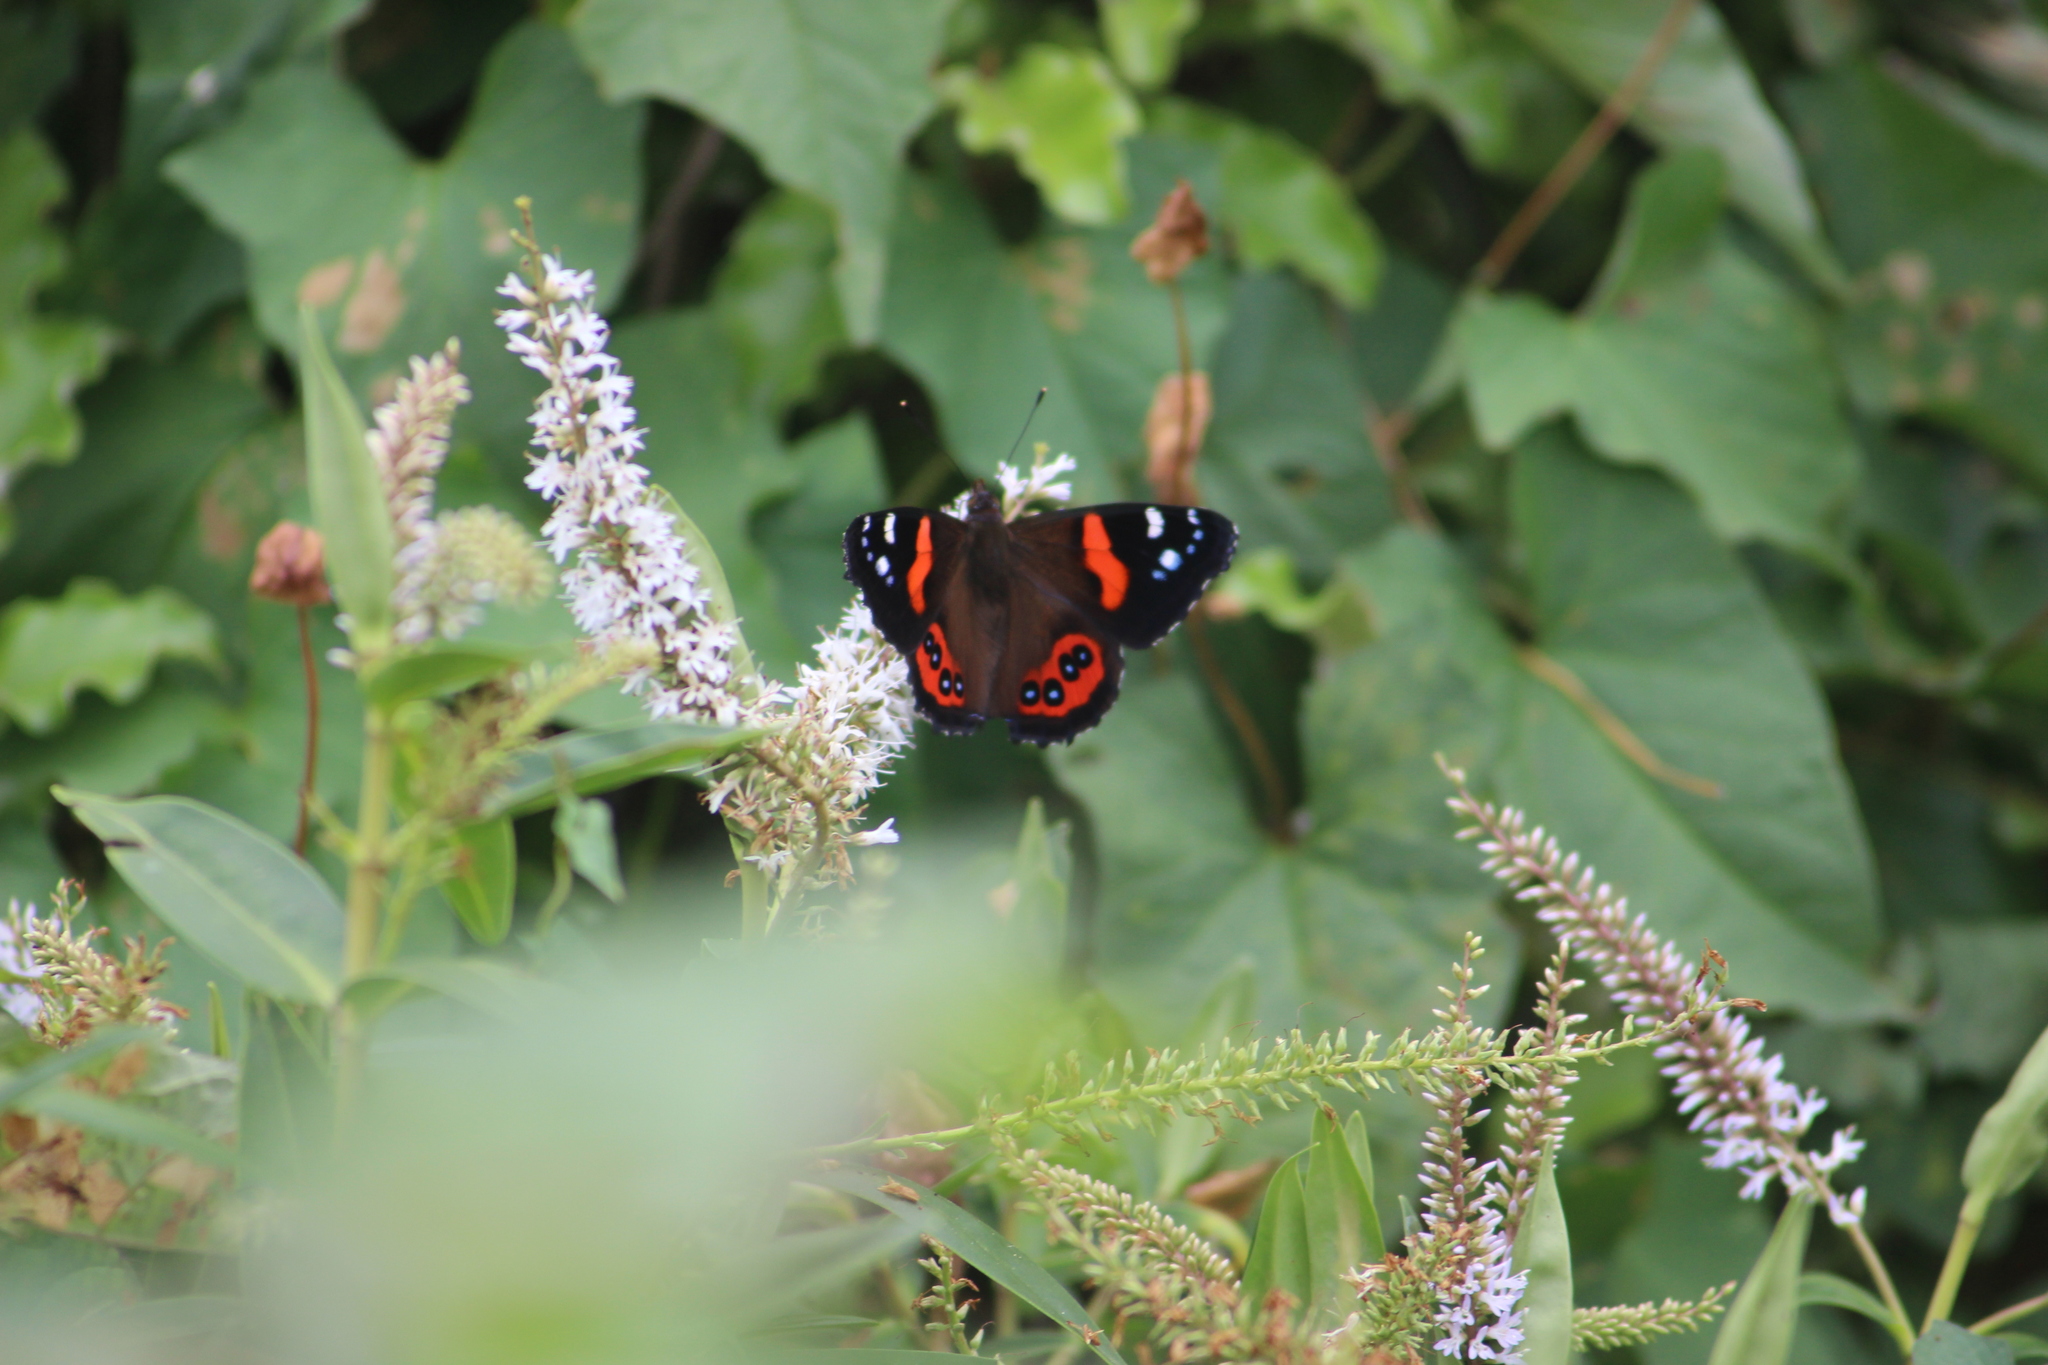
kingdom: Animalia
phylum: Arthropoda
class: Insecta
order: Lepidoptera
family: Nymphalidae
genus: Vanessa
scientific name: Vanessa gonerilla
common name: New zealand red admiral
